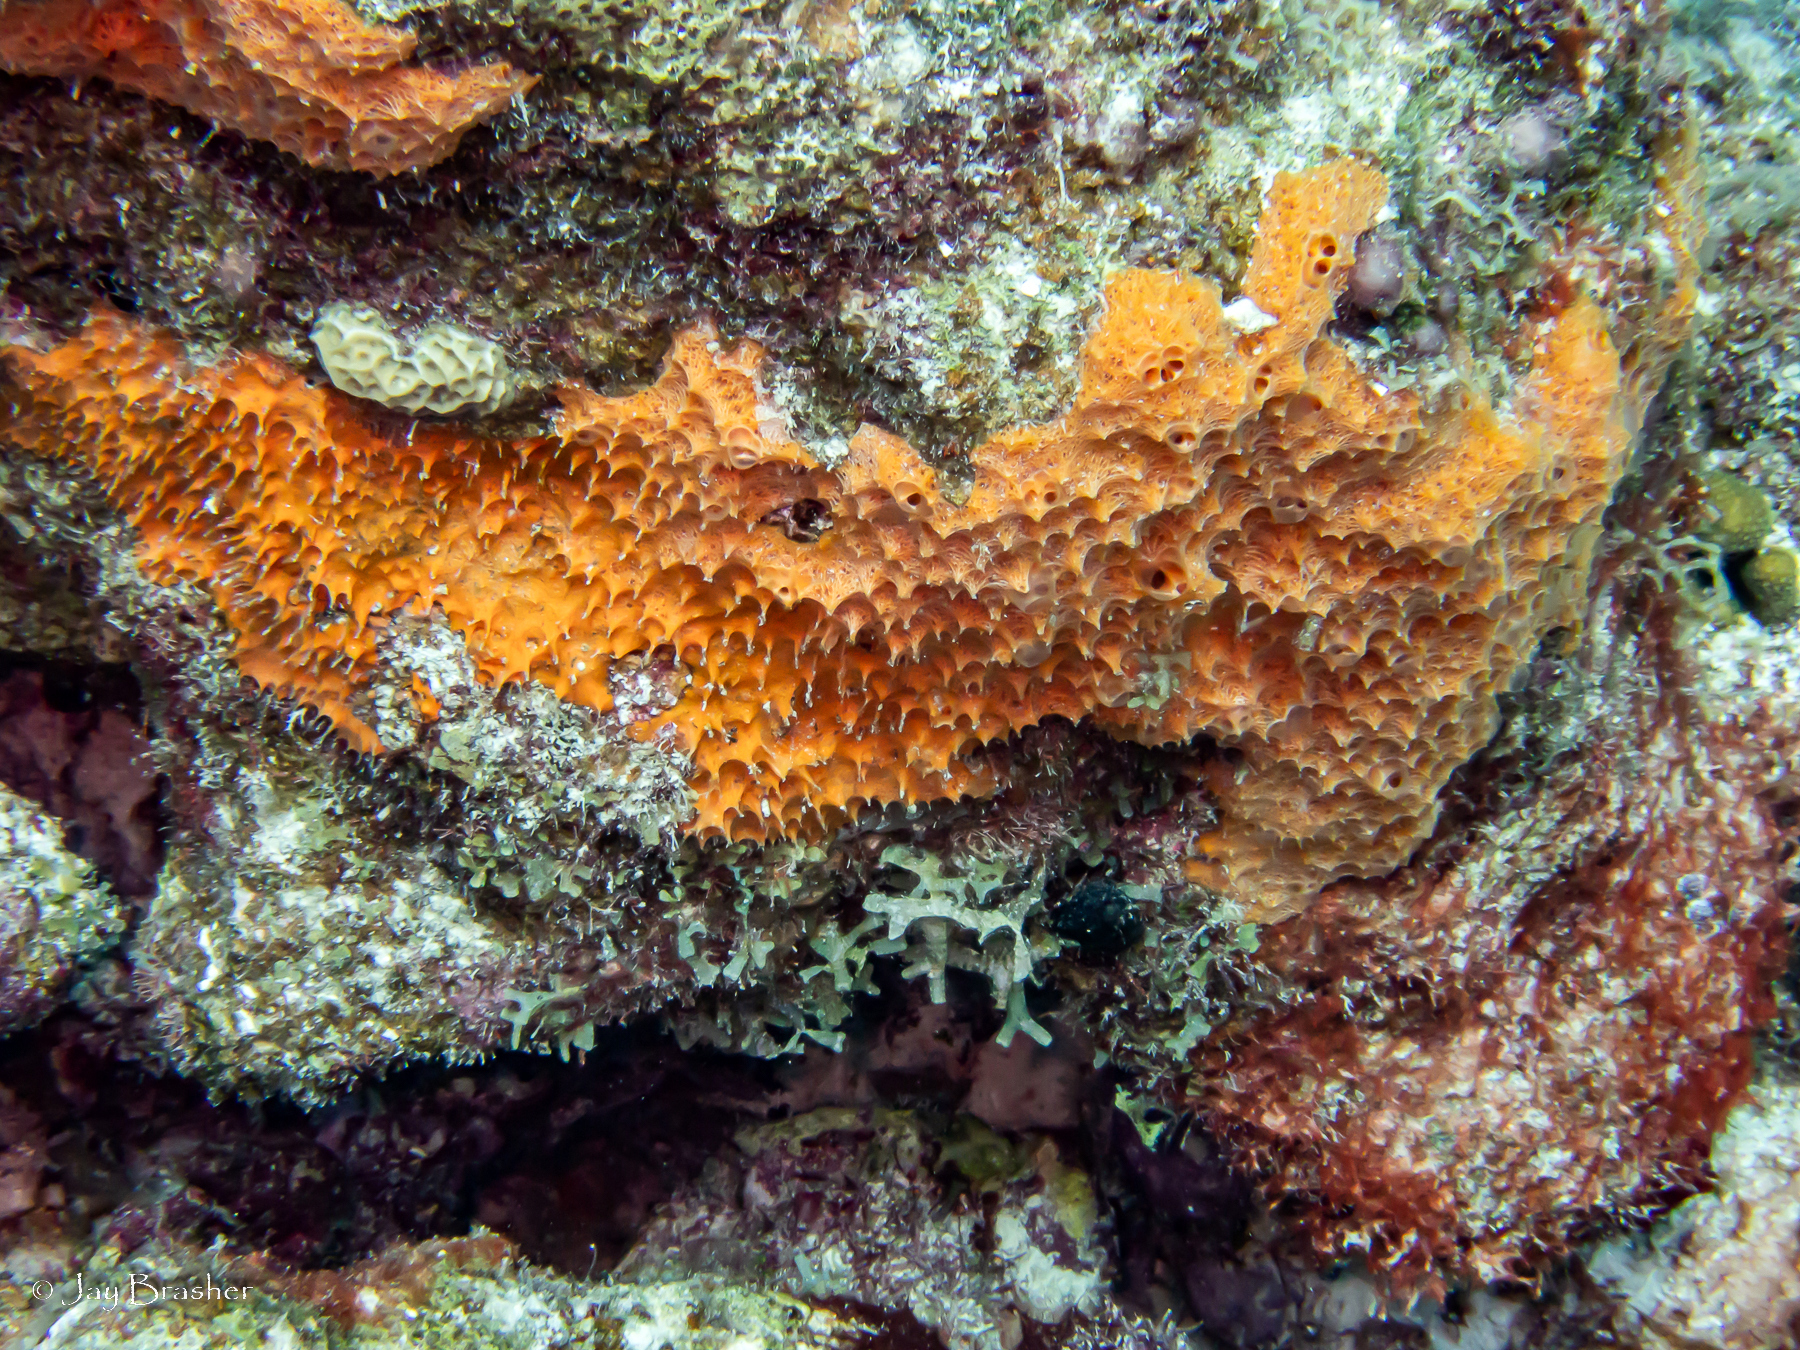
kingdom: Animalia
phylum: Porifera
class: Demospongiae
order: Scopalinida
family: Scopalinidae
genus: Scopalina
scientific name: Scopalina ruetzleri
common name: Orange lumpy encrusting sponge
